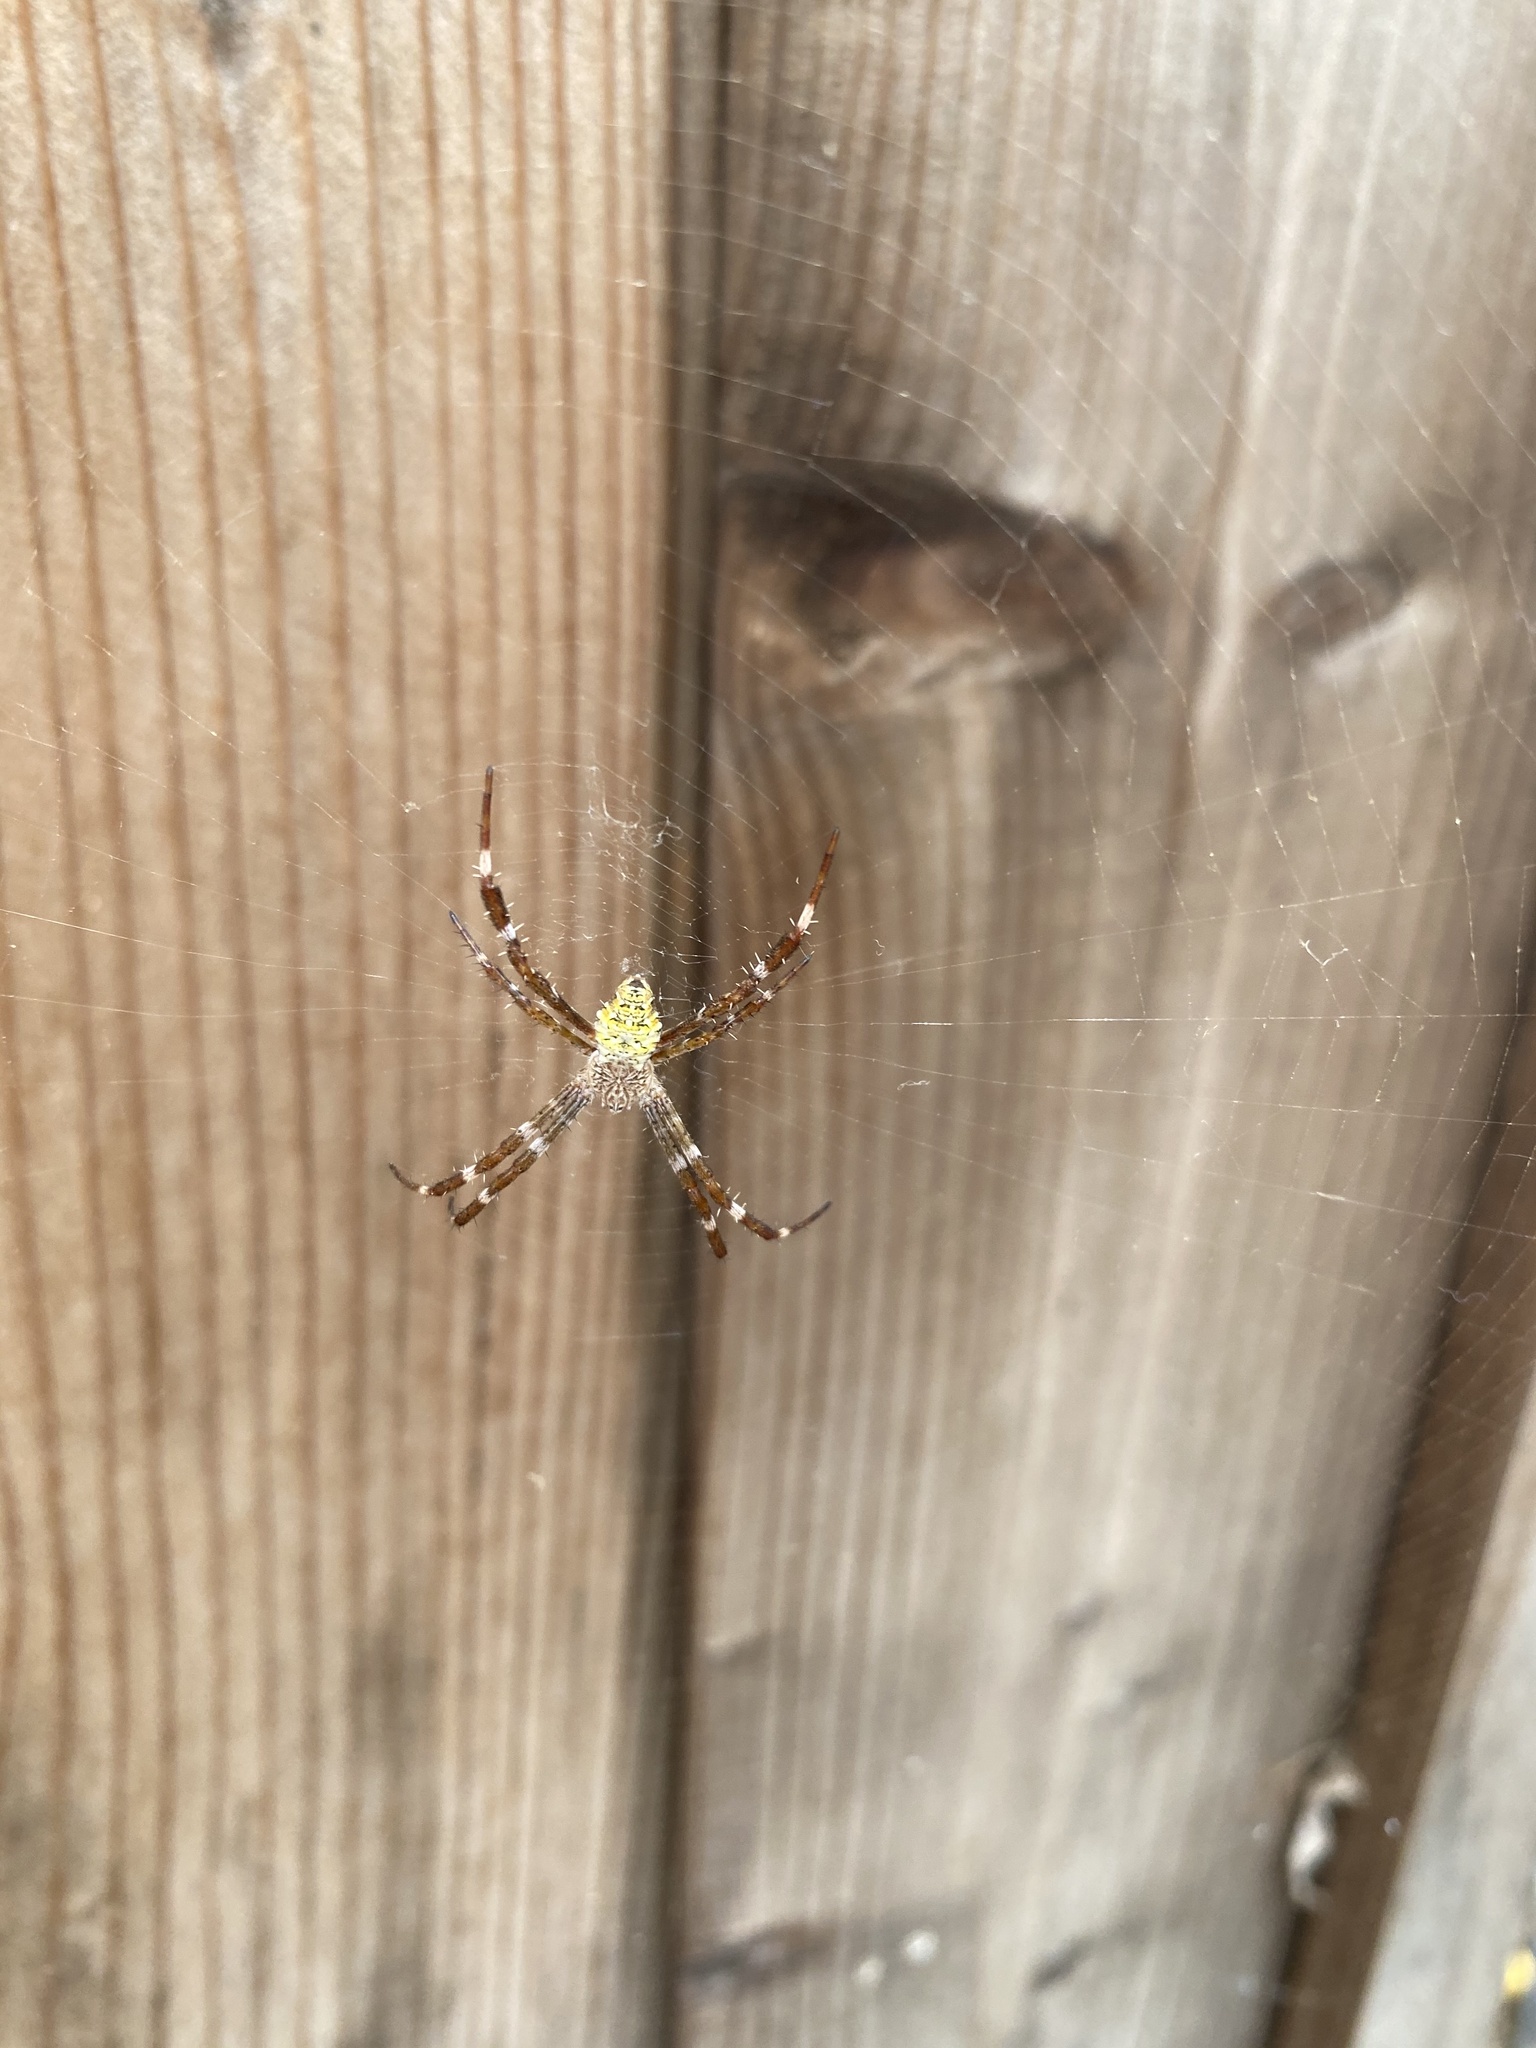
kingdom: Animalia
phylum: Arthropoda
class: Arachnida
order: Araneae
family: Araneidae
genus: Argiope
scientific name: Argiope appensa
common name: Garden spider
